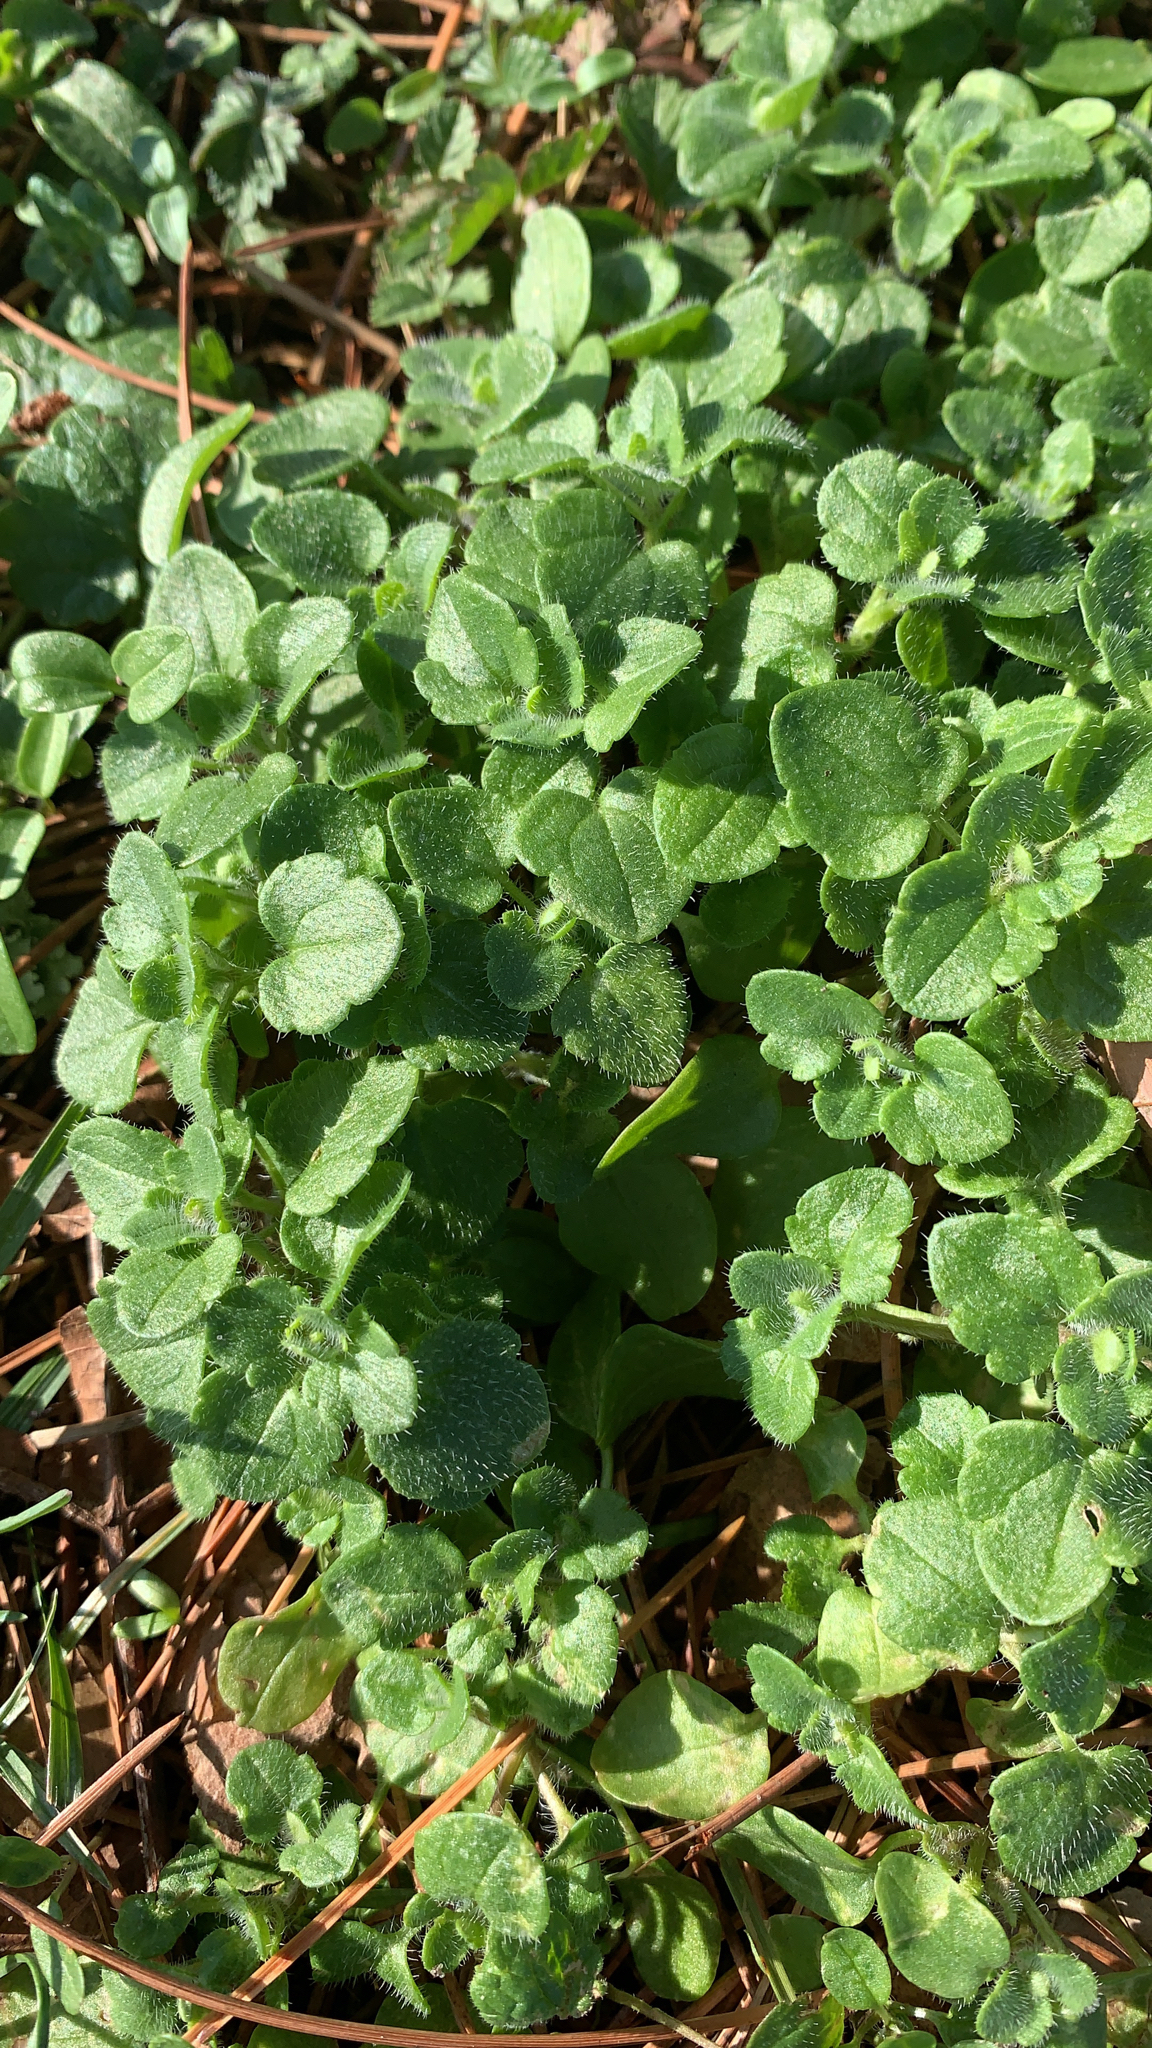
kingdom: Plantae
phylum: Tracheophyta
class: Magnoliopsida
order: Lamiales
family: Plantaginaceae
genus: Veronica
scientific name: Veronica hederifolia
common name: Ivy-leaved speedwell
